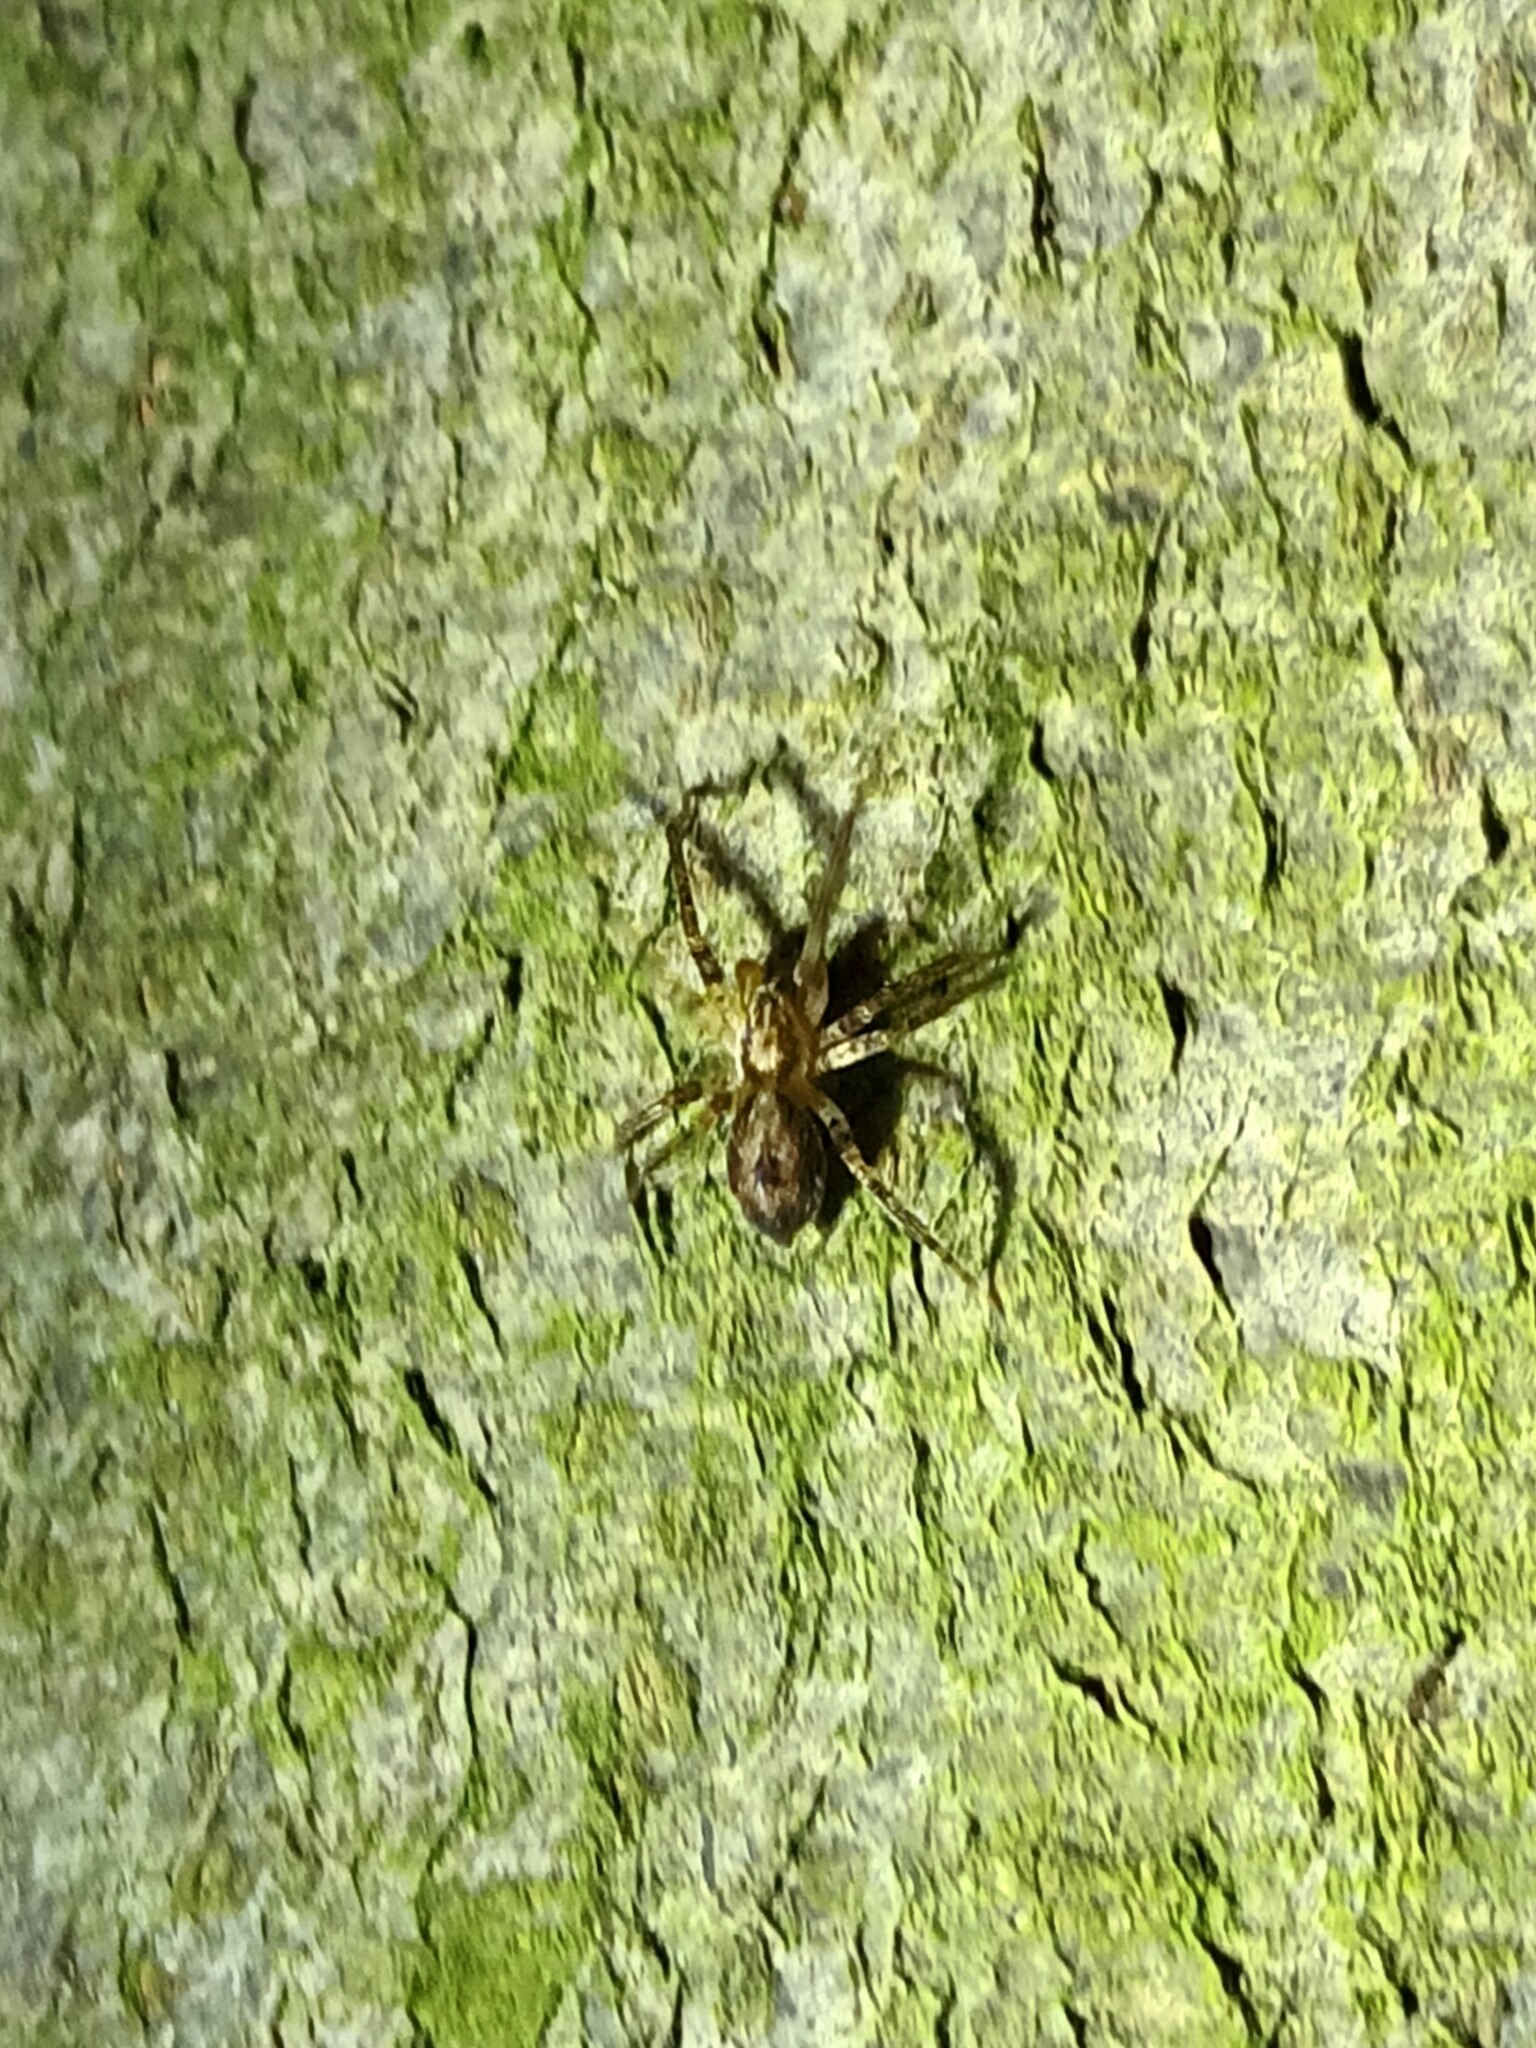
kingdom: Animalia
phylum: Arthropoda
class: Arachnida
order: Araneae
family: Anyphaenidae
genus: Anyphaena
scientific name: Anyphaena accentuata
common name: Buzzing spider
